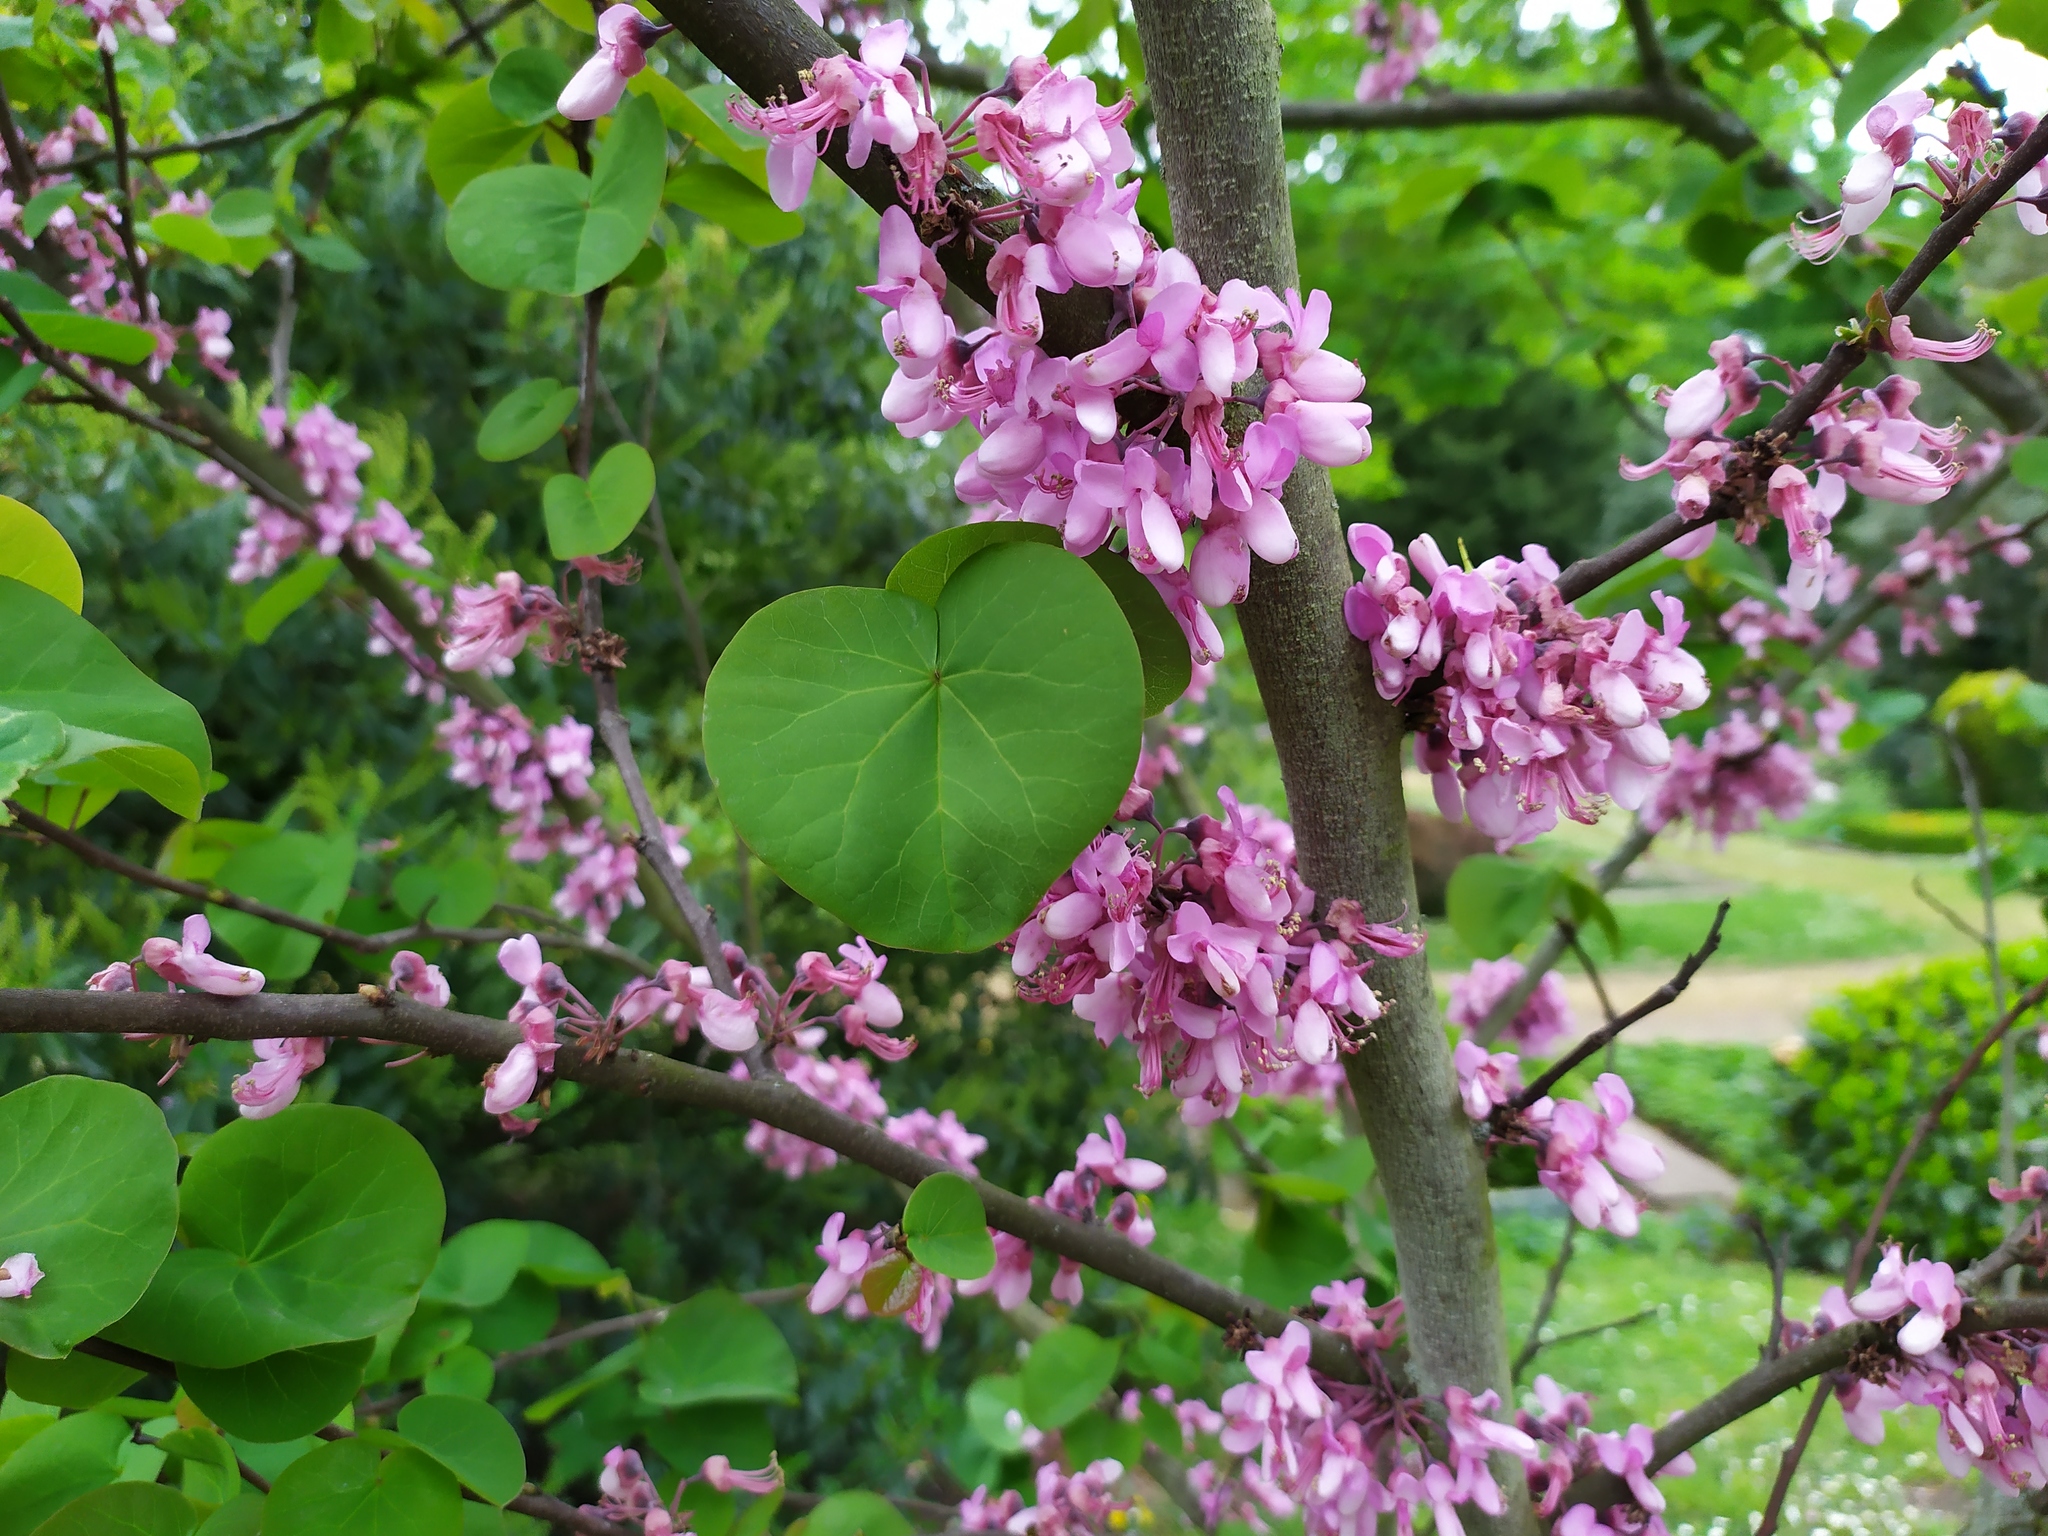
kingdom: Plantae
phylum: Tracheophyta
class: Magnoliopsida
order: Fabales
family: Fabaceae
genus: Cercis
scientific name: Cercis siliquastrum
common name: Judas tree
